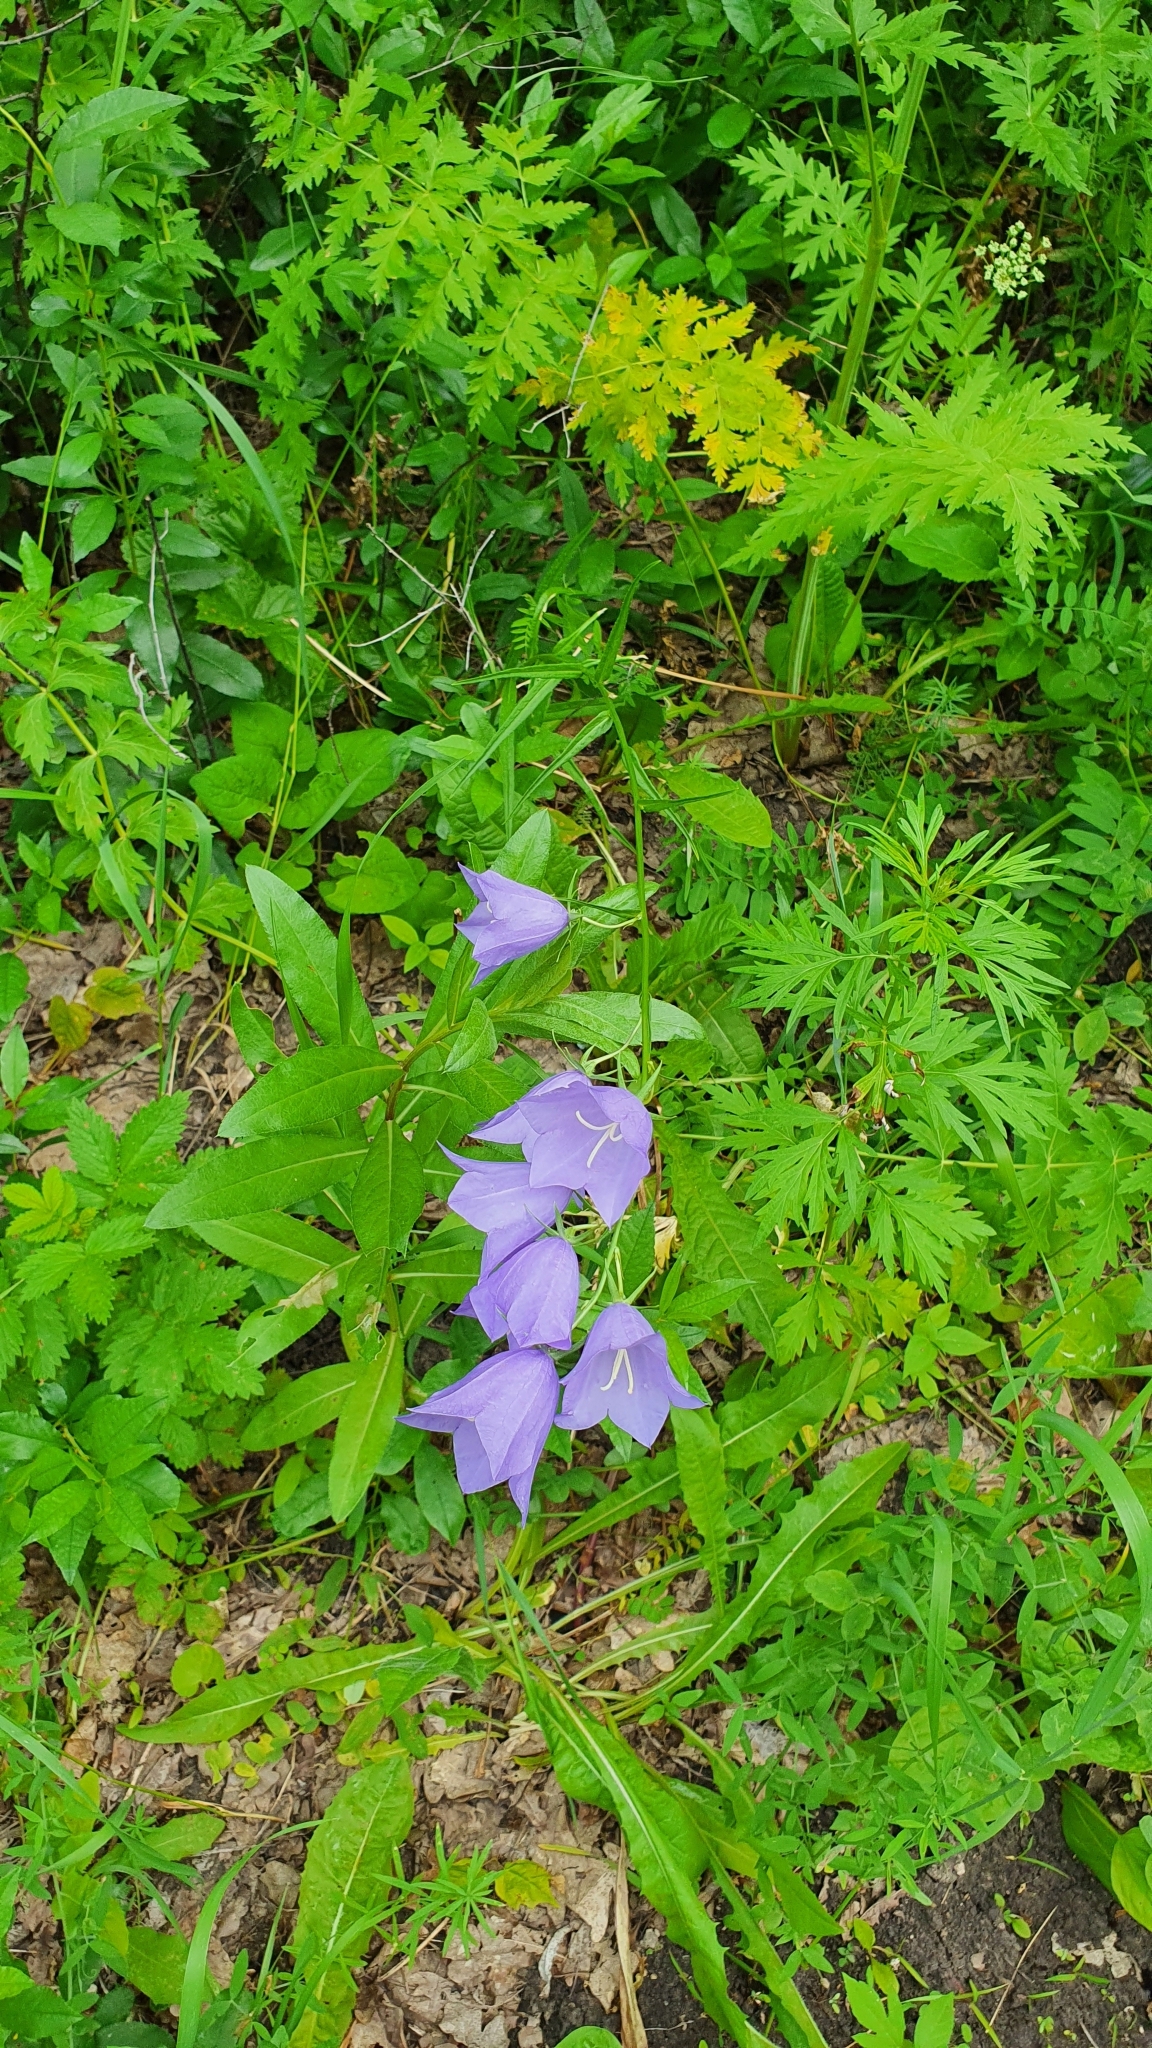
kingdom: Plantae
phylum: Tracheophyta
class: Magnoliopsida
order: Asterales
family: Campanulaceae
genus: Campanula
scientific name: Campanula persicifolia
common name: Peach-leaved bellflower
